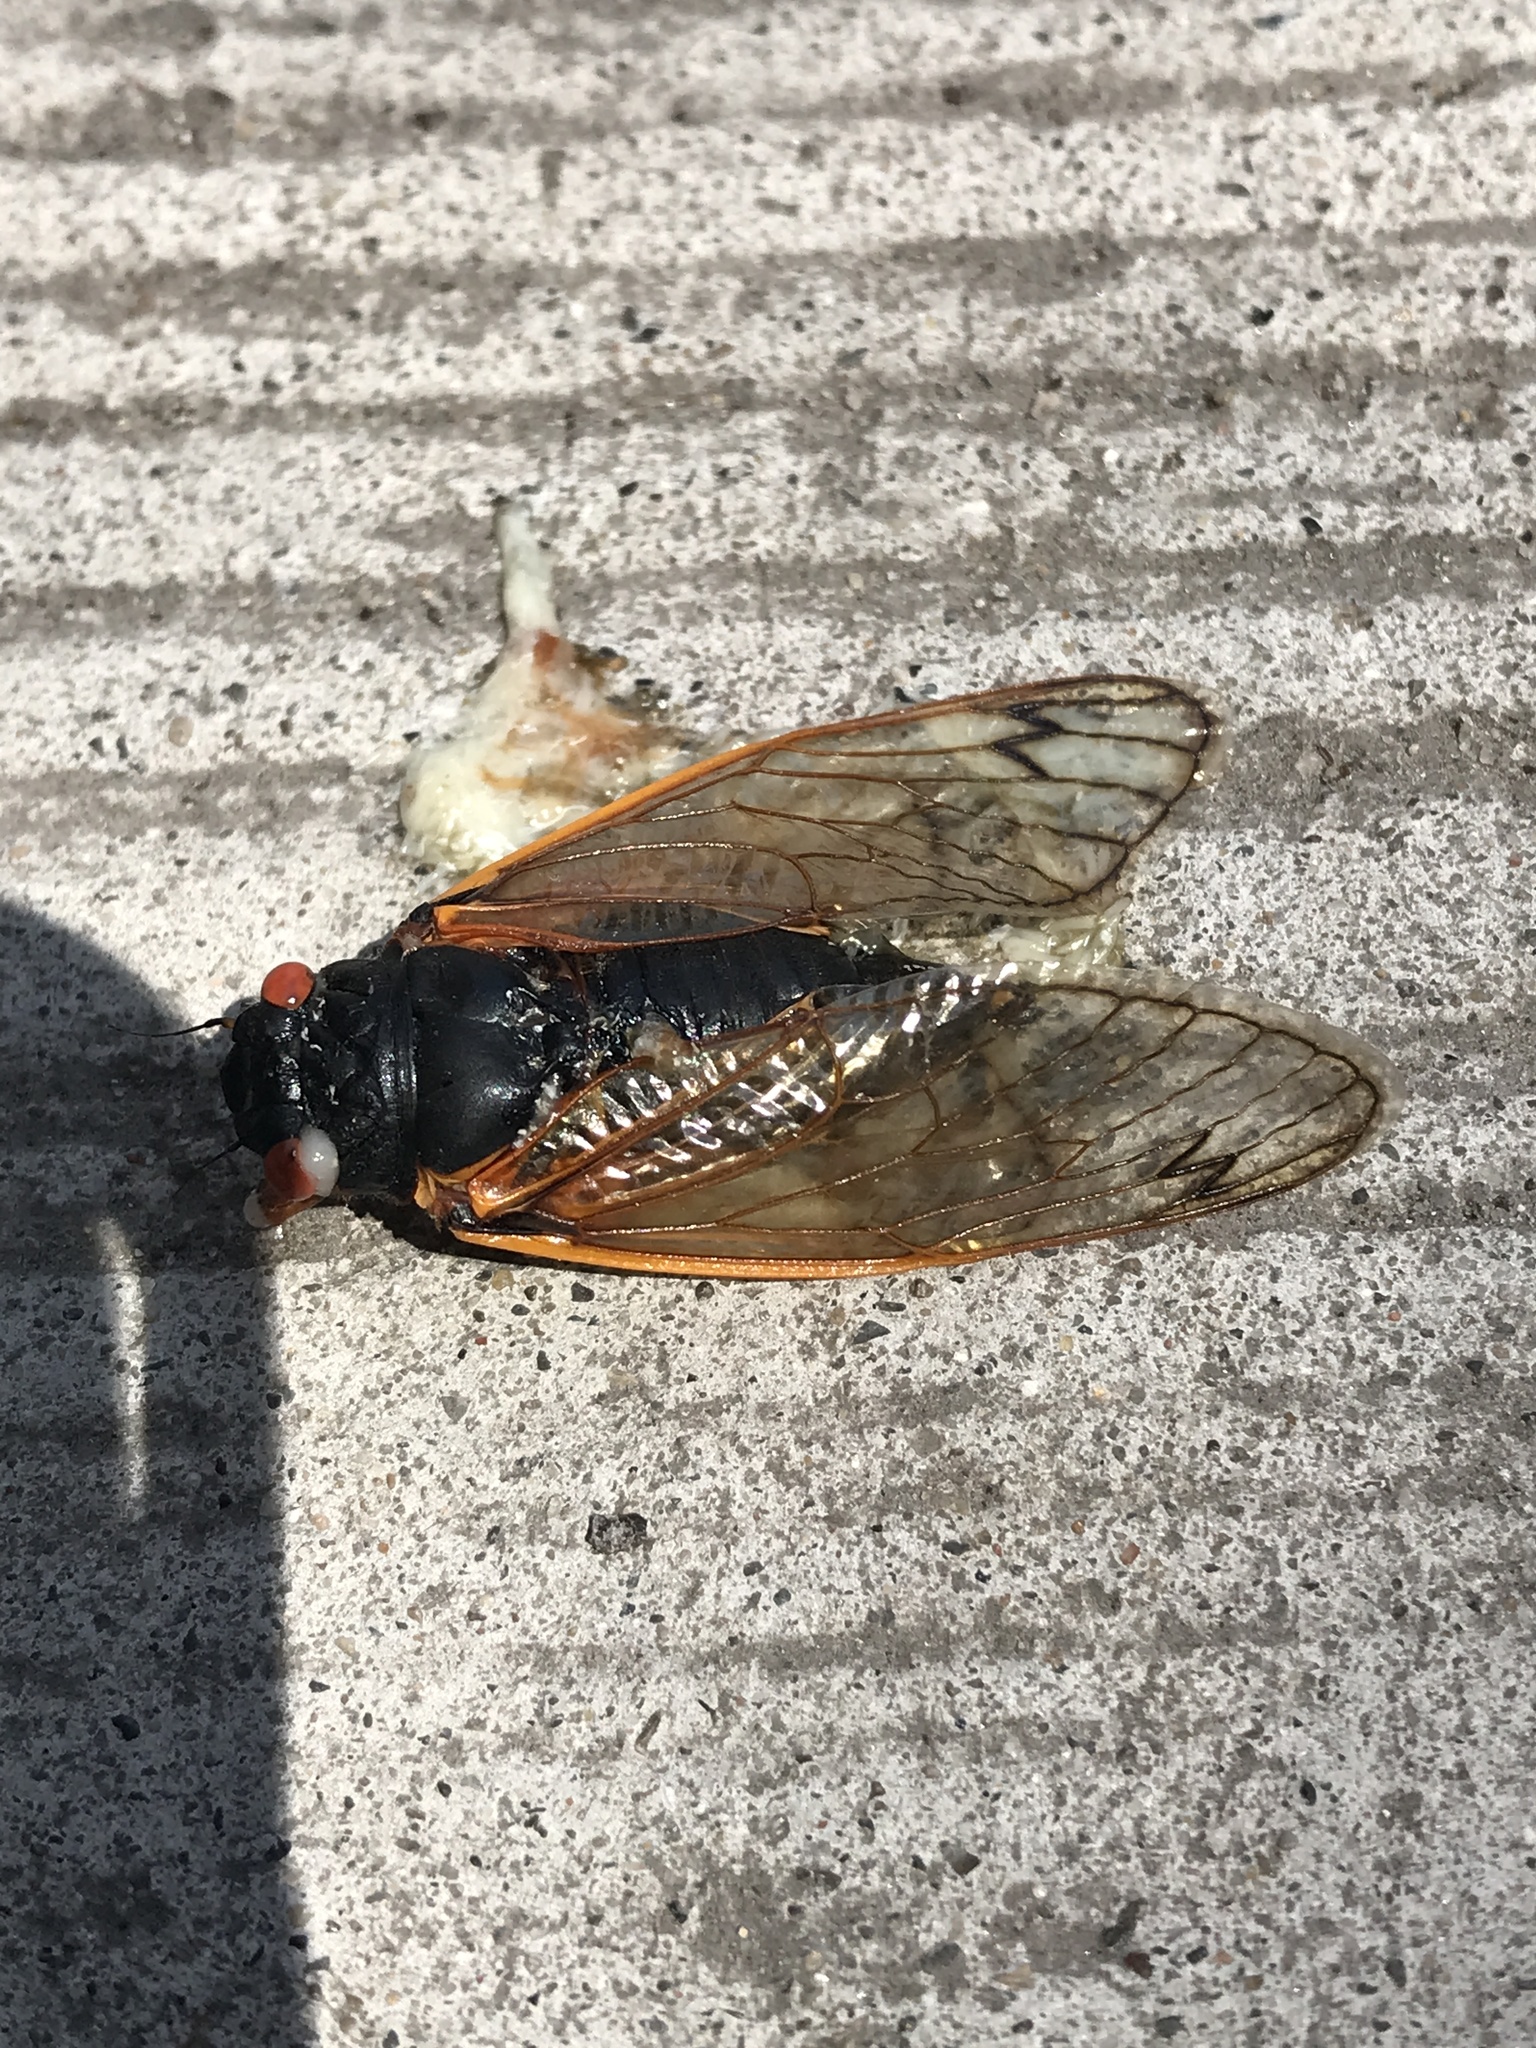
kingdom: Animalia
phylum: Arthropoda
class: Insecta
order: Hemiptera
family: Cicadidae
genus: Magicicada
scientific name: Magicicada septendecim
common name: Periodical cicada
